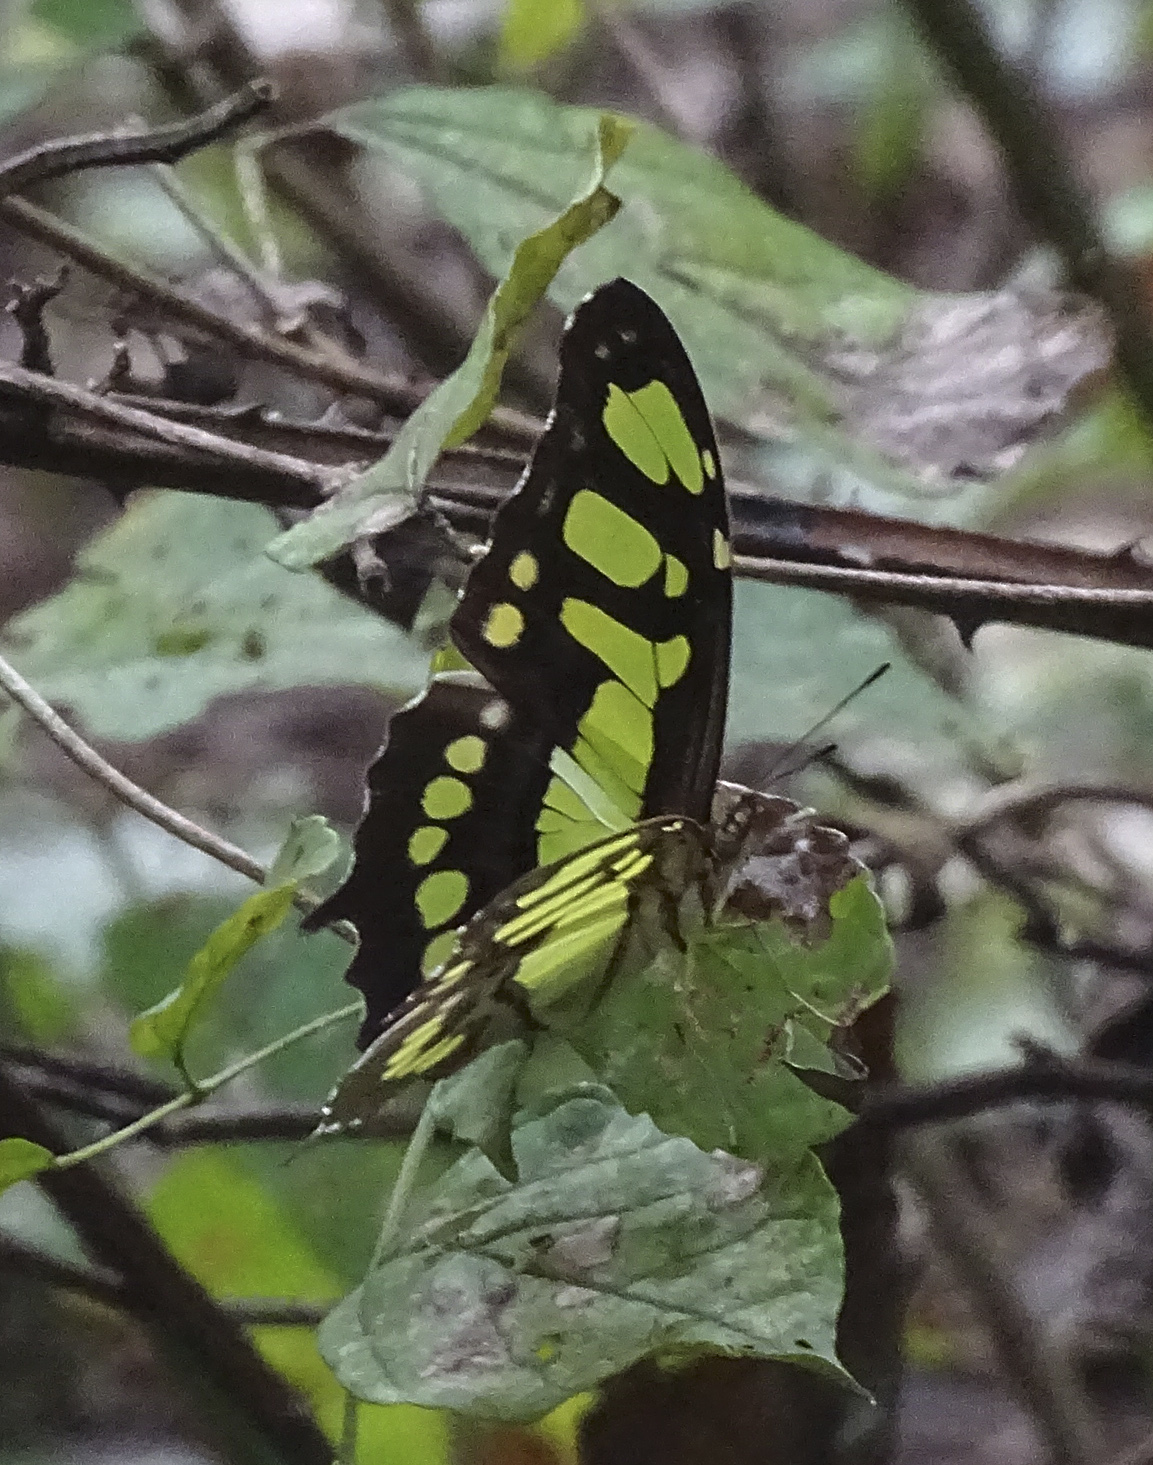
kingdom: Animalia
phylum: Arthropoda
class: Insecta
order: Lepidoptera
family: Nymphalidae
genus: Siproeta
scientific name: Siproeta stelenes
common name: Malachite
